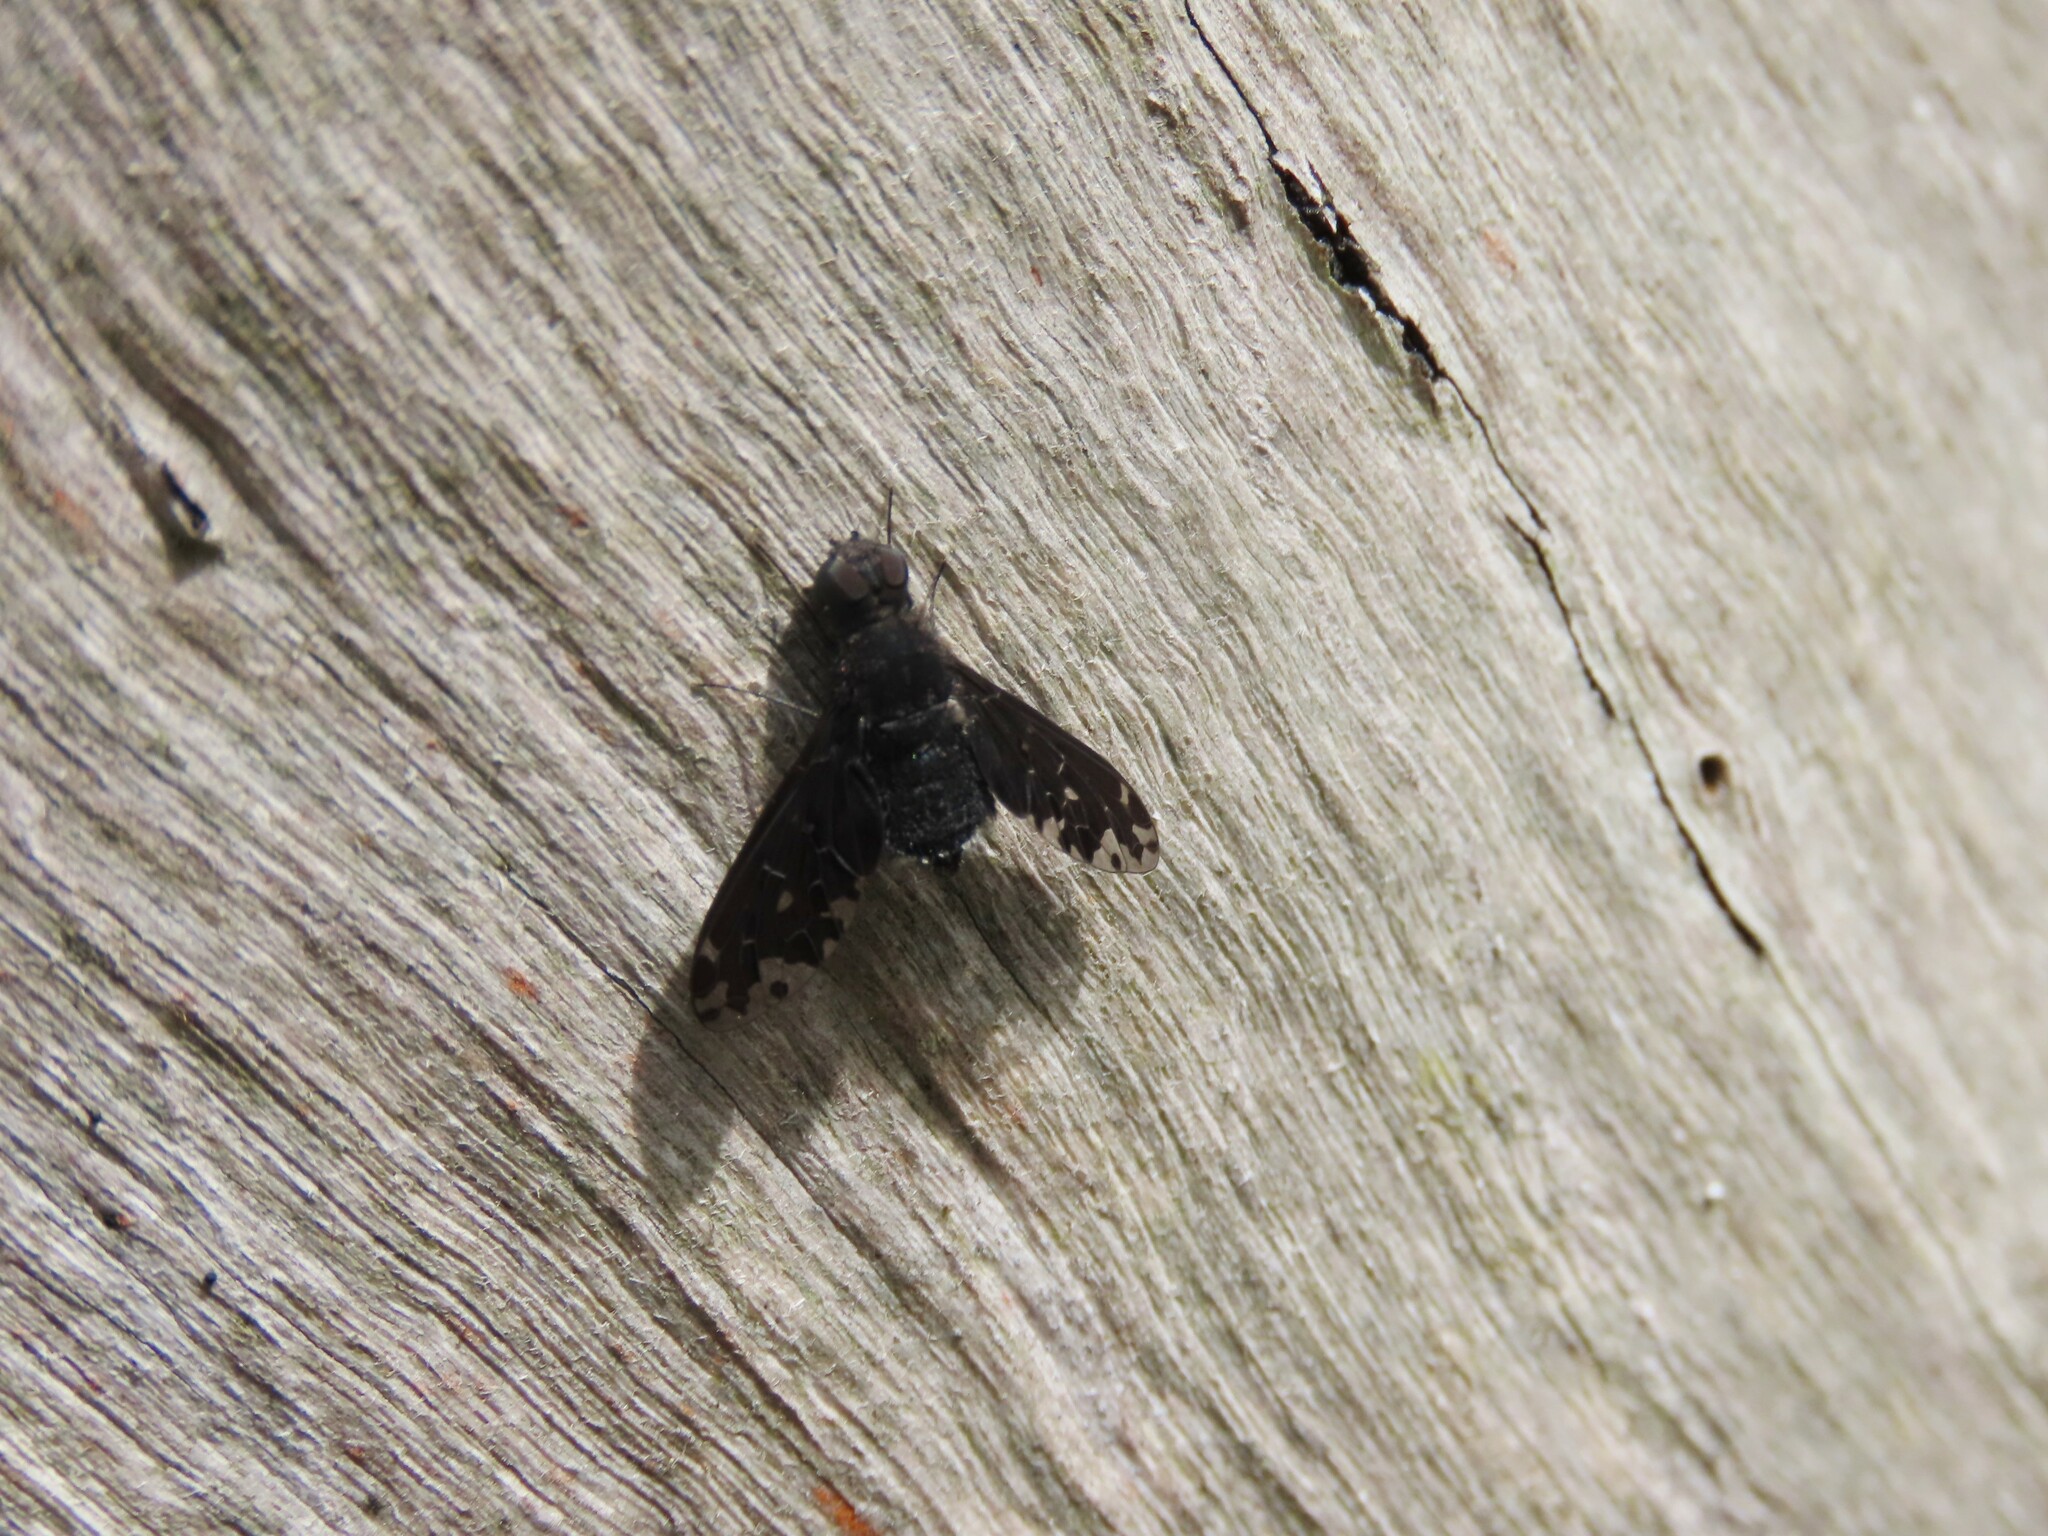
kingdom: Animalia
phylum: Arthropoda
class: Insecta
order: Diptera
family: Bombyliidae
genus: Anthrax
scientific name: Anthrax maculata
